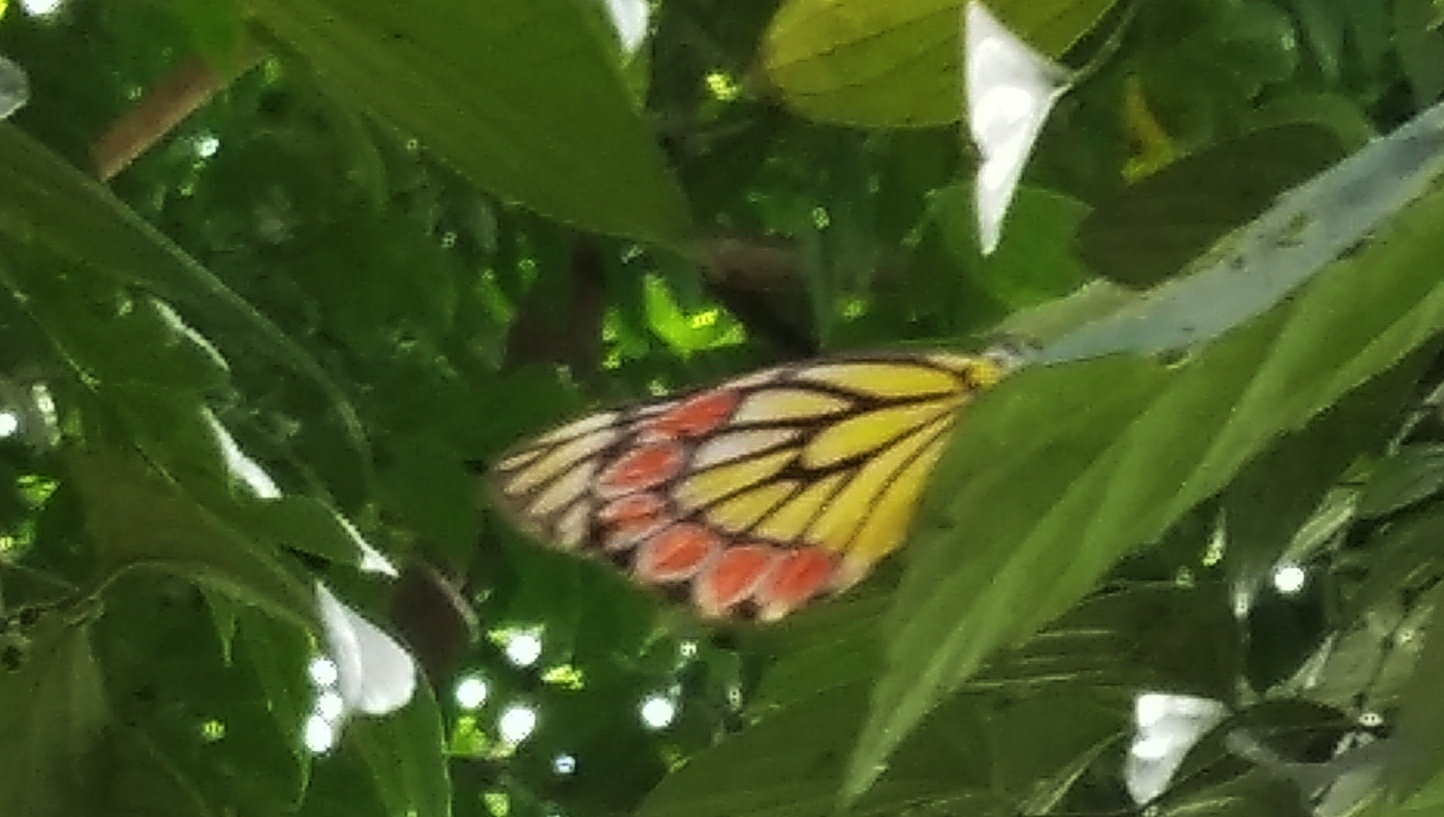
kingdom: Animalia
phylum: Arthropoda
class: Insecta
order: Lepidoptera
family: Pieridae
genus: Delias
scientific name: Delias eucharis
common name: Common jezebel
